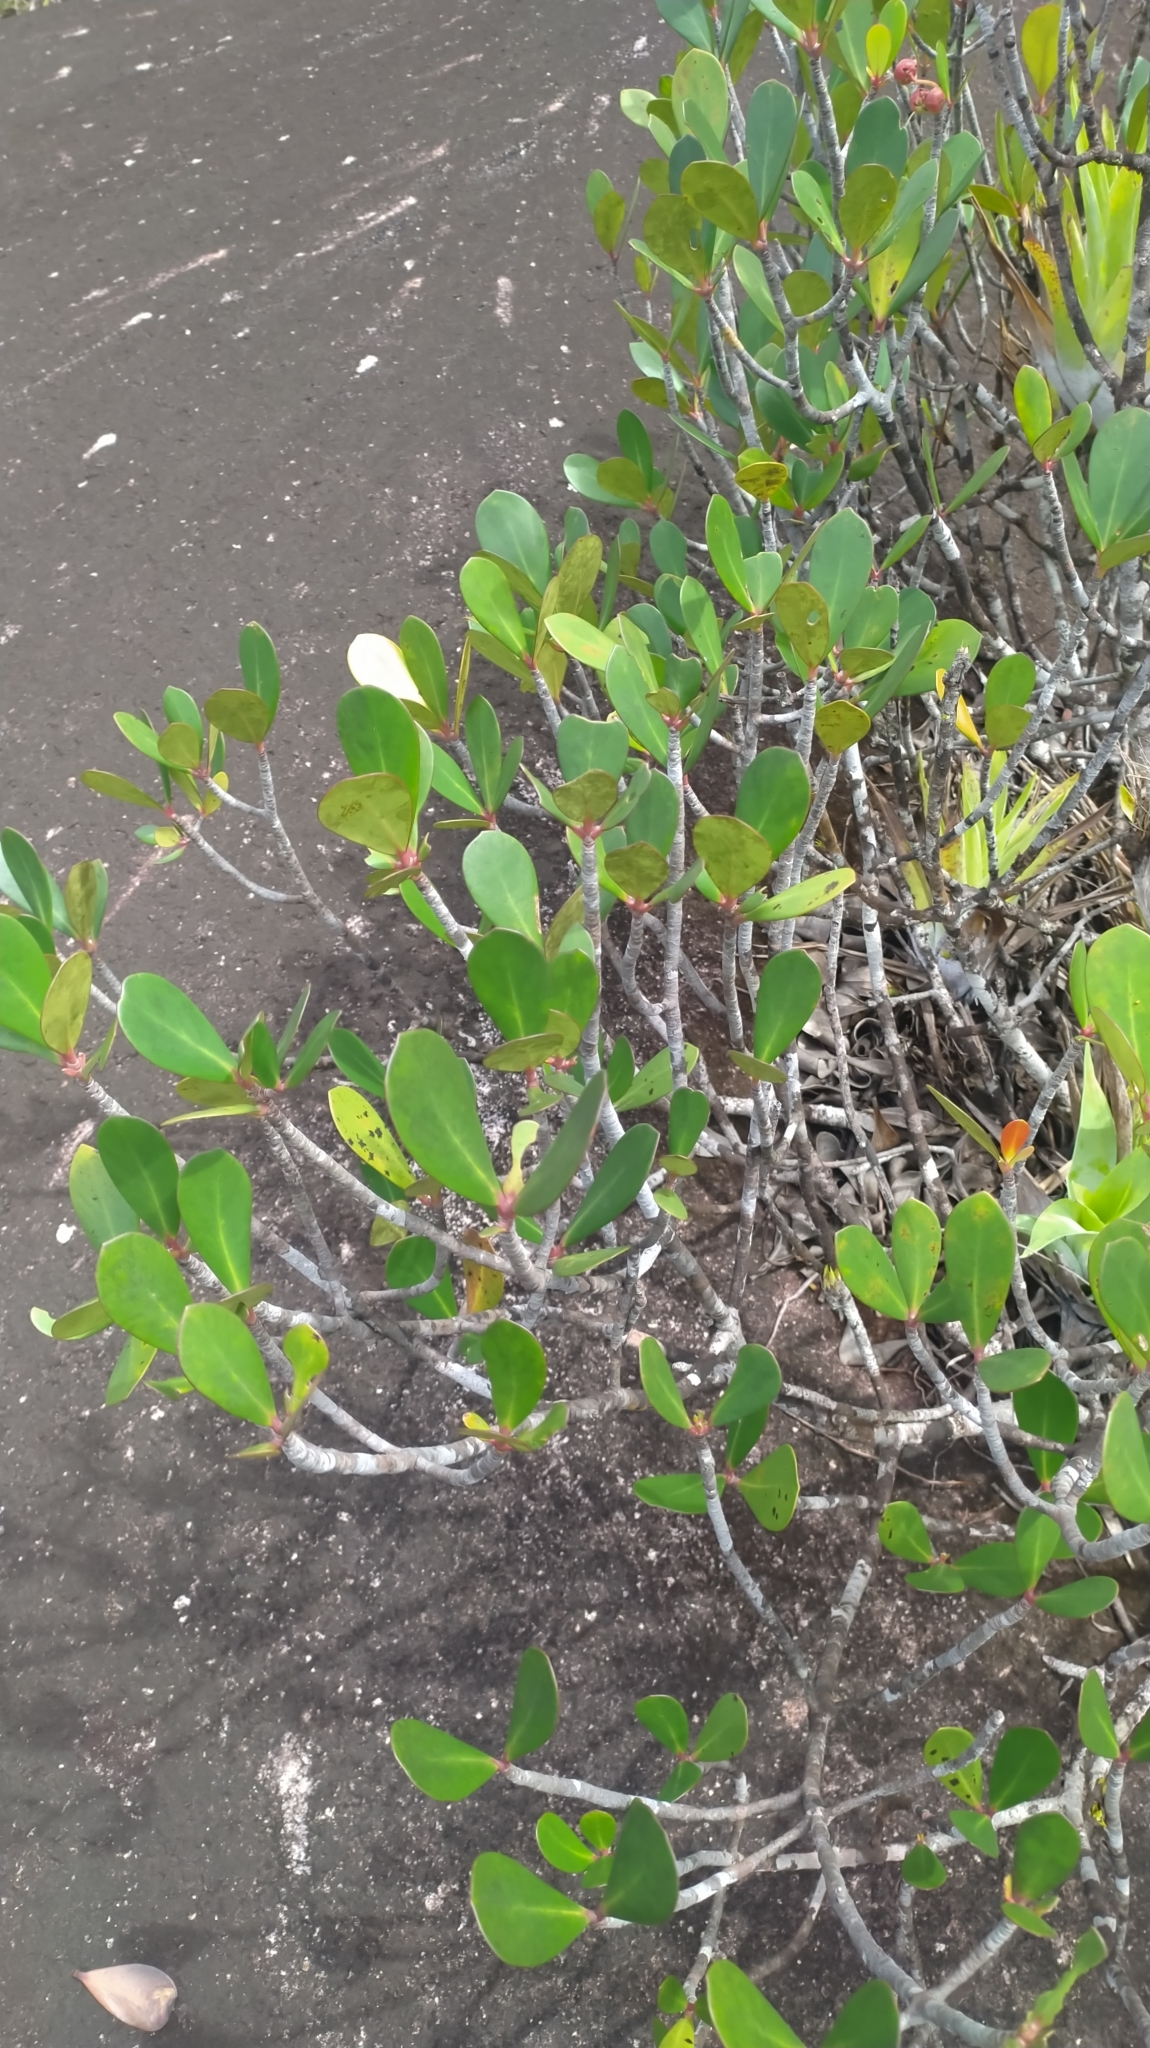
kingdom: Plantae
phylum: Tracheophyta
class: Magnoliopsida
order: Malpighiales
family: Clusiaceae
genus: Clusia
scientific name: Clusia blattophila
